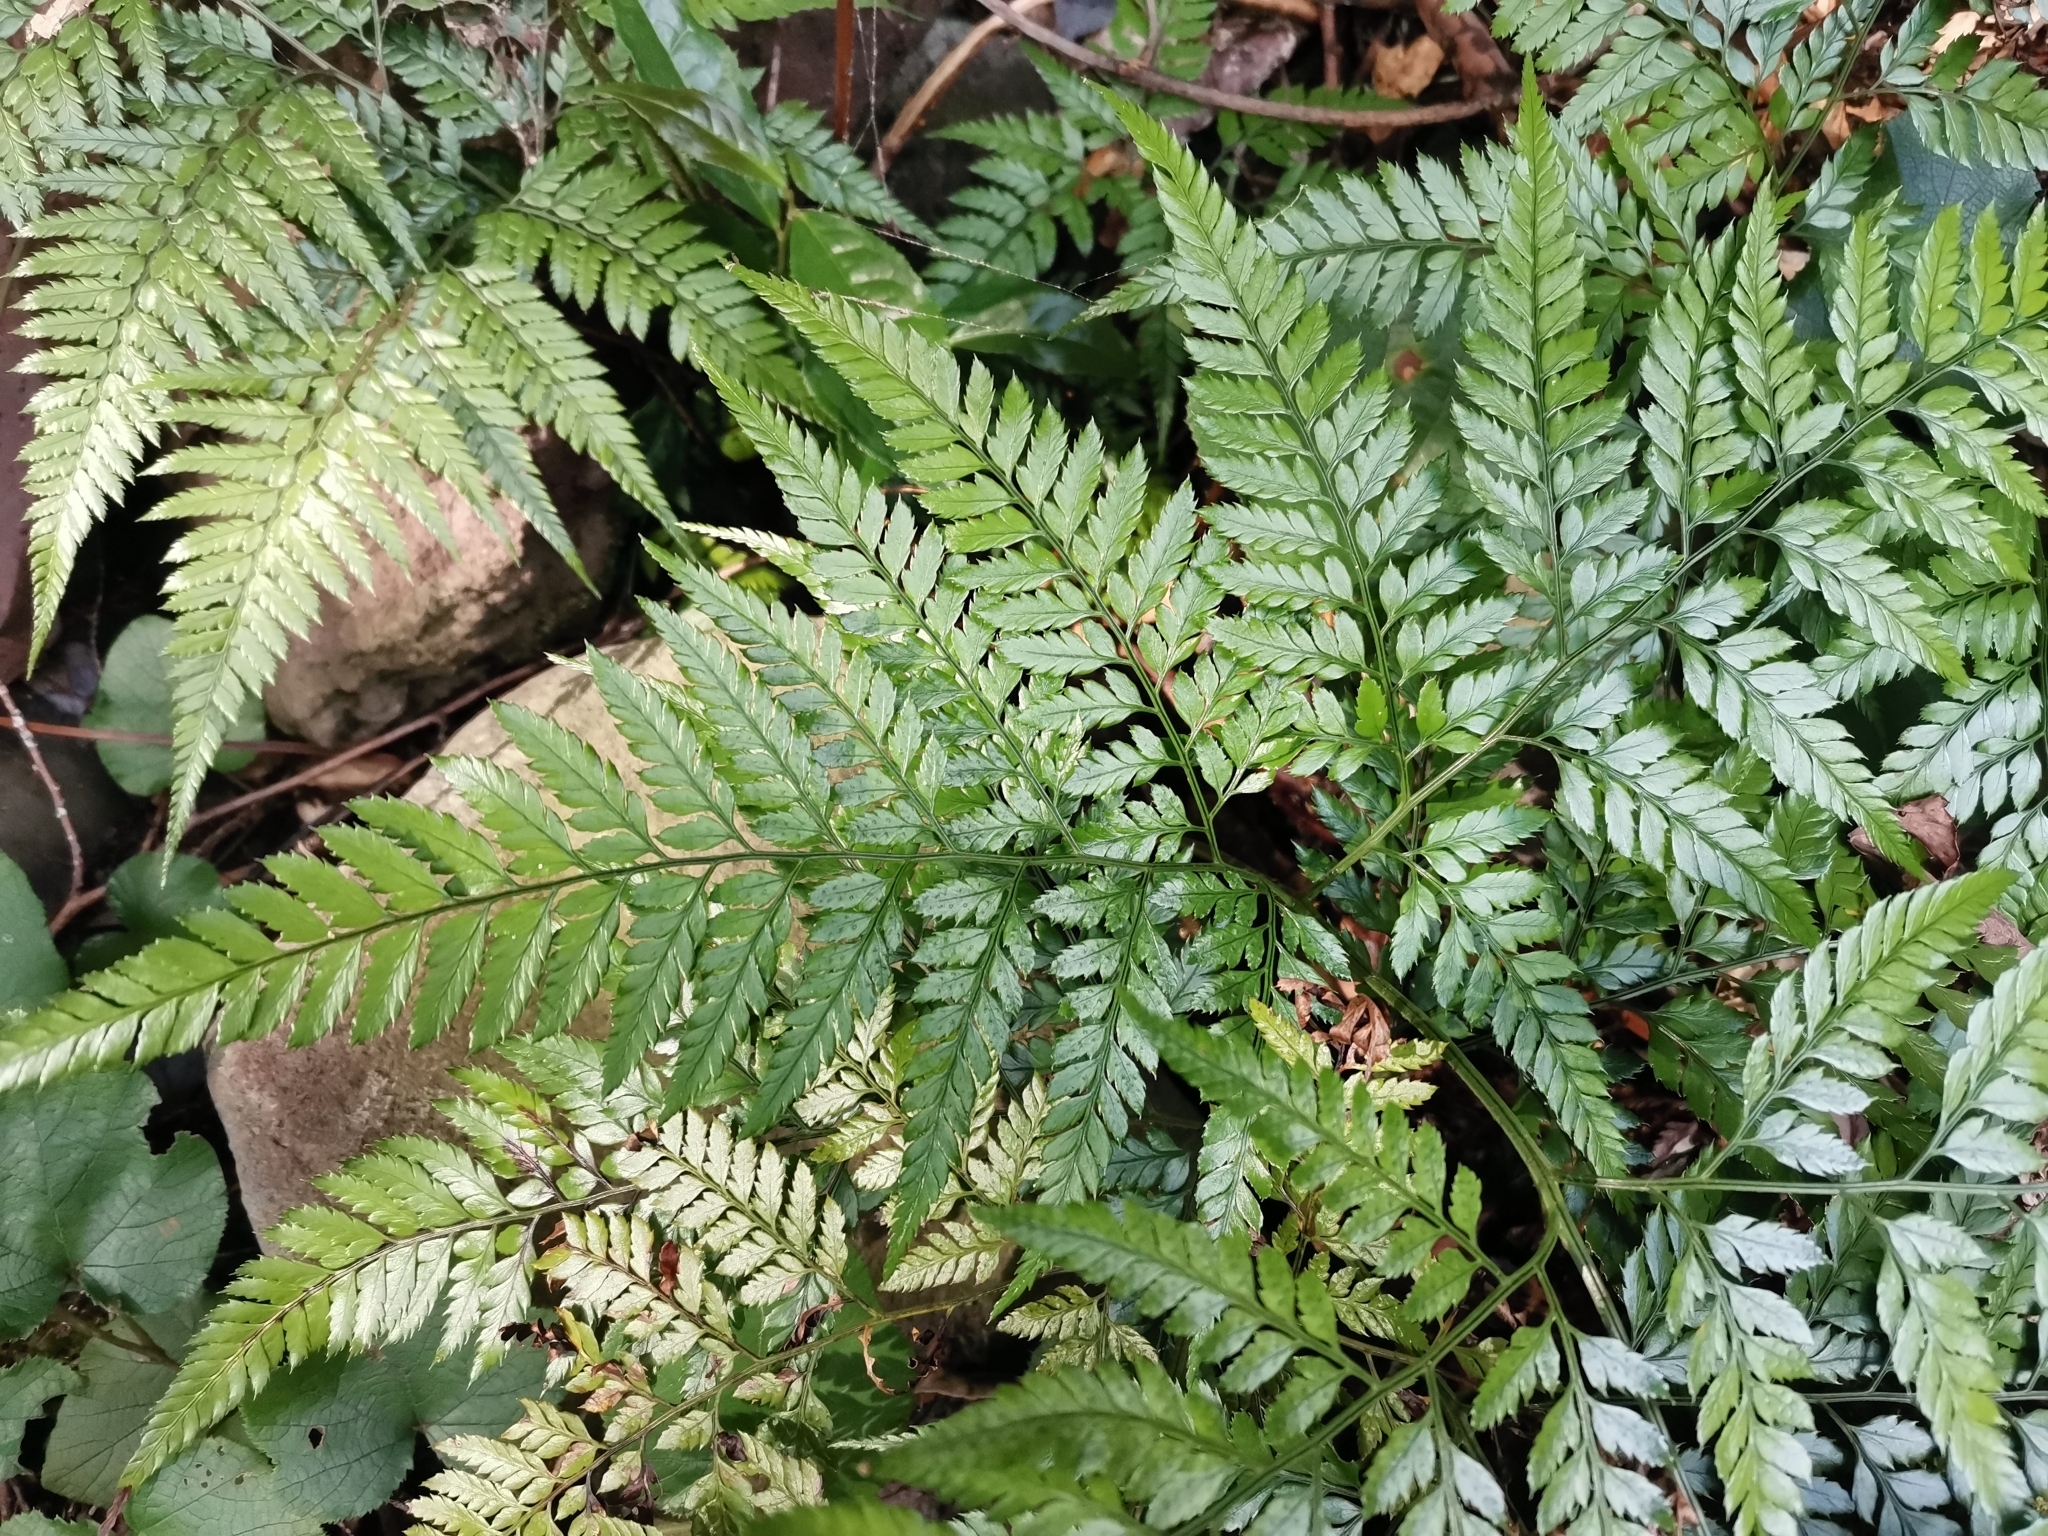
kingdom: Plantae
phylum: Tracheophyta
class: Polypodiopsida
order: Polypodiales
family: Dryopteridaceae
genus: Arachniodes
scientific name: Arachniodes cornu-cervi
